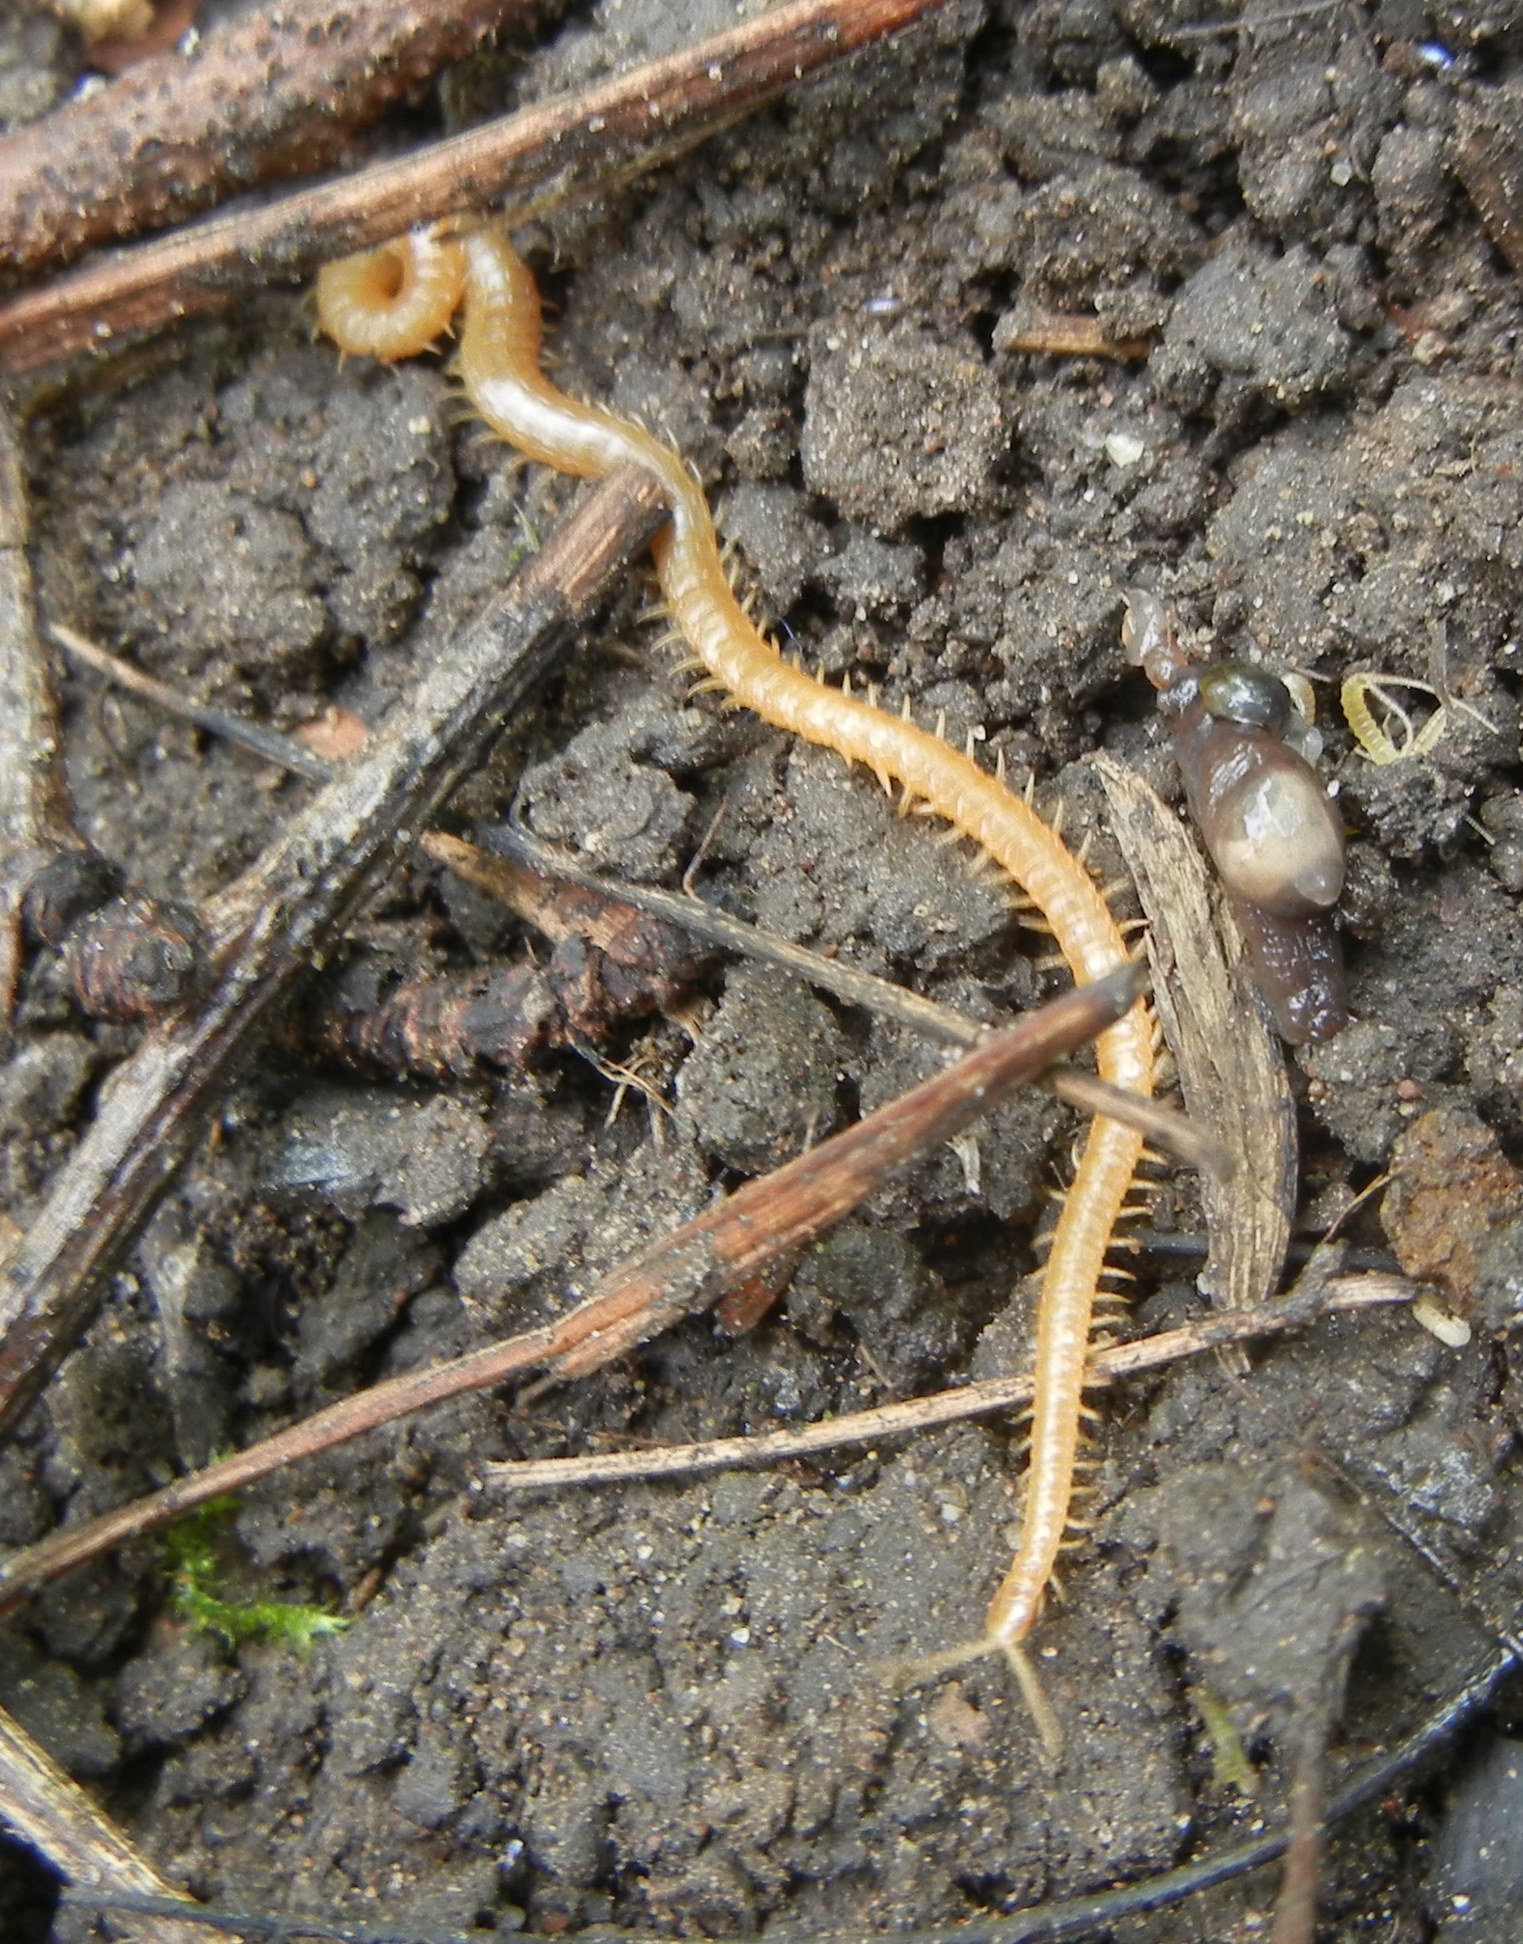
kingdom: Animalia
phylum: Arthropoda
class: Chilopoda
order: Geophilomorpha
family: Himantariidae
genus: Stigmatogaster
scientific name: Stigmatogaster subterranea
